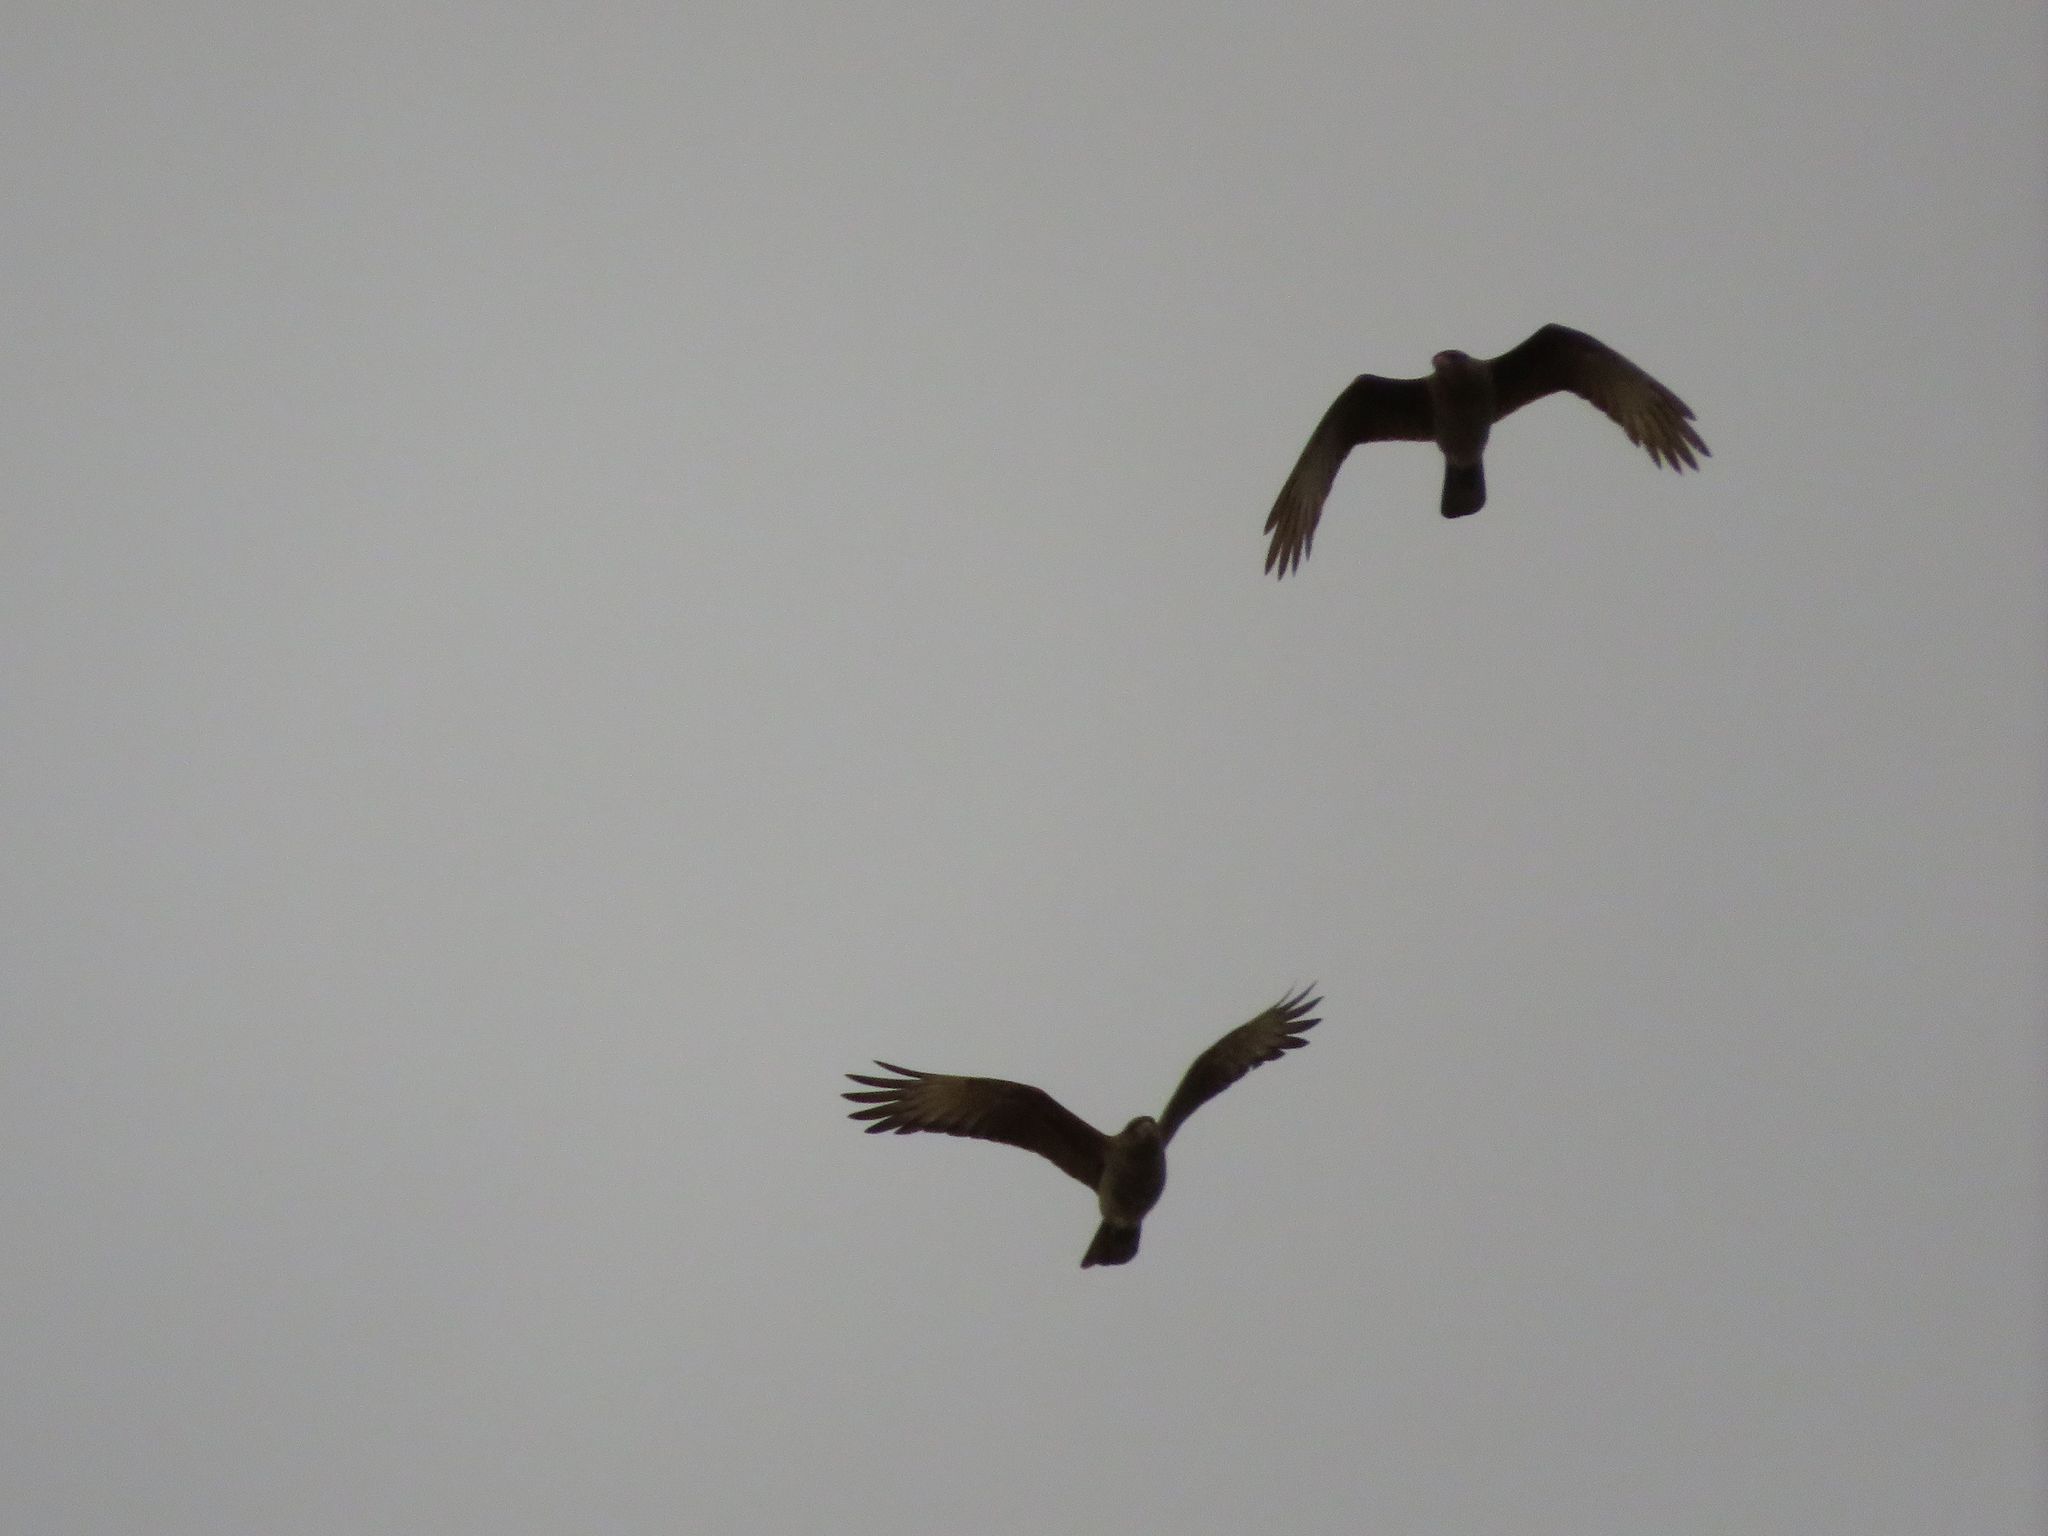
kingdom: Animalia
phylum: Chordata
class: Aves
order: Falconiformes
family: Falconidae
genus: Daptrius
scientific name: Daptrius
